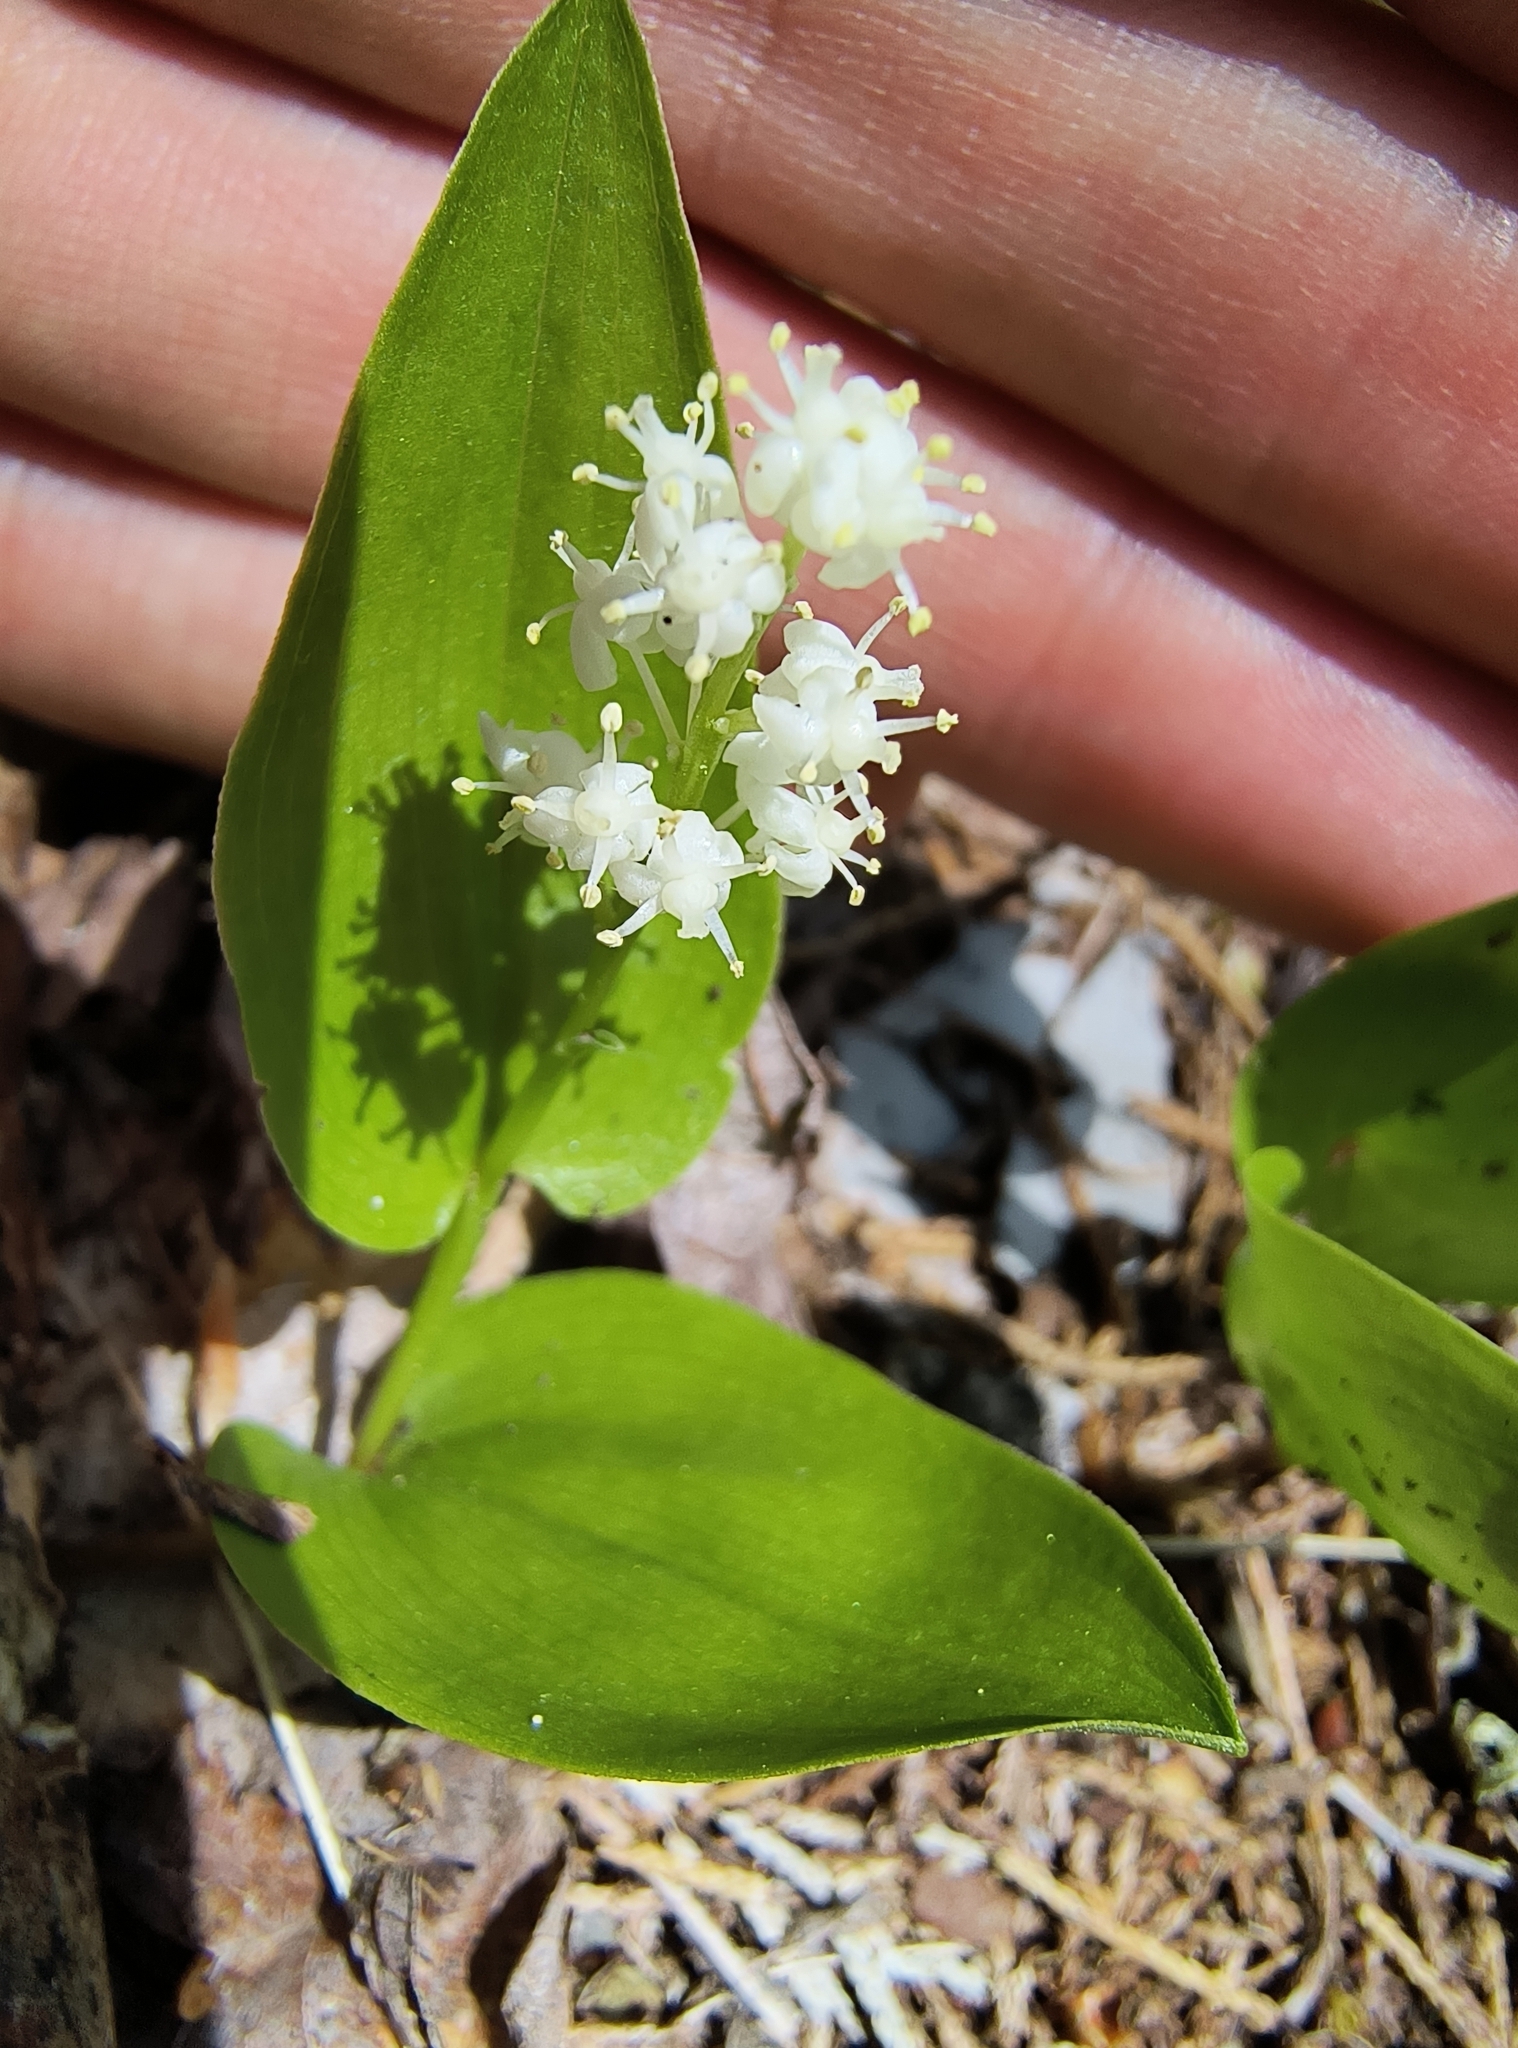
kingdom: Plantae
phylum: Tracheophyta
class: Liliopsida
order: Asparagales
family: Asparagaceae
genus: Maianthemum
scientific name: Maianthemum canadense
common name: False lily-of-the-valley
